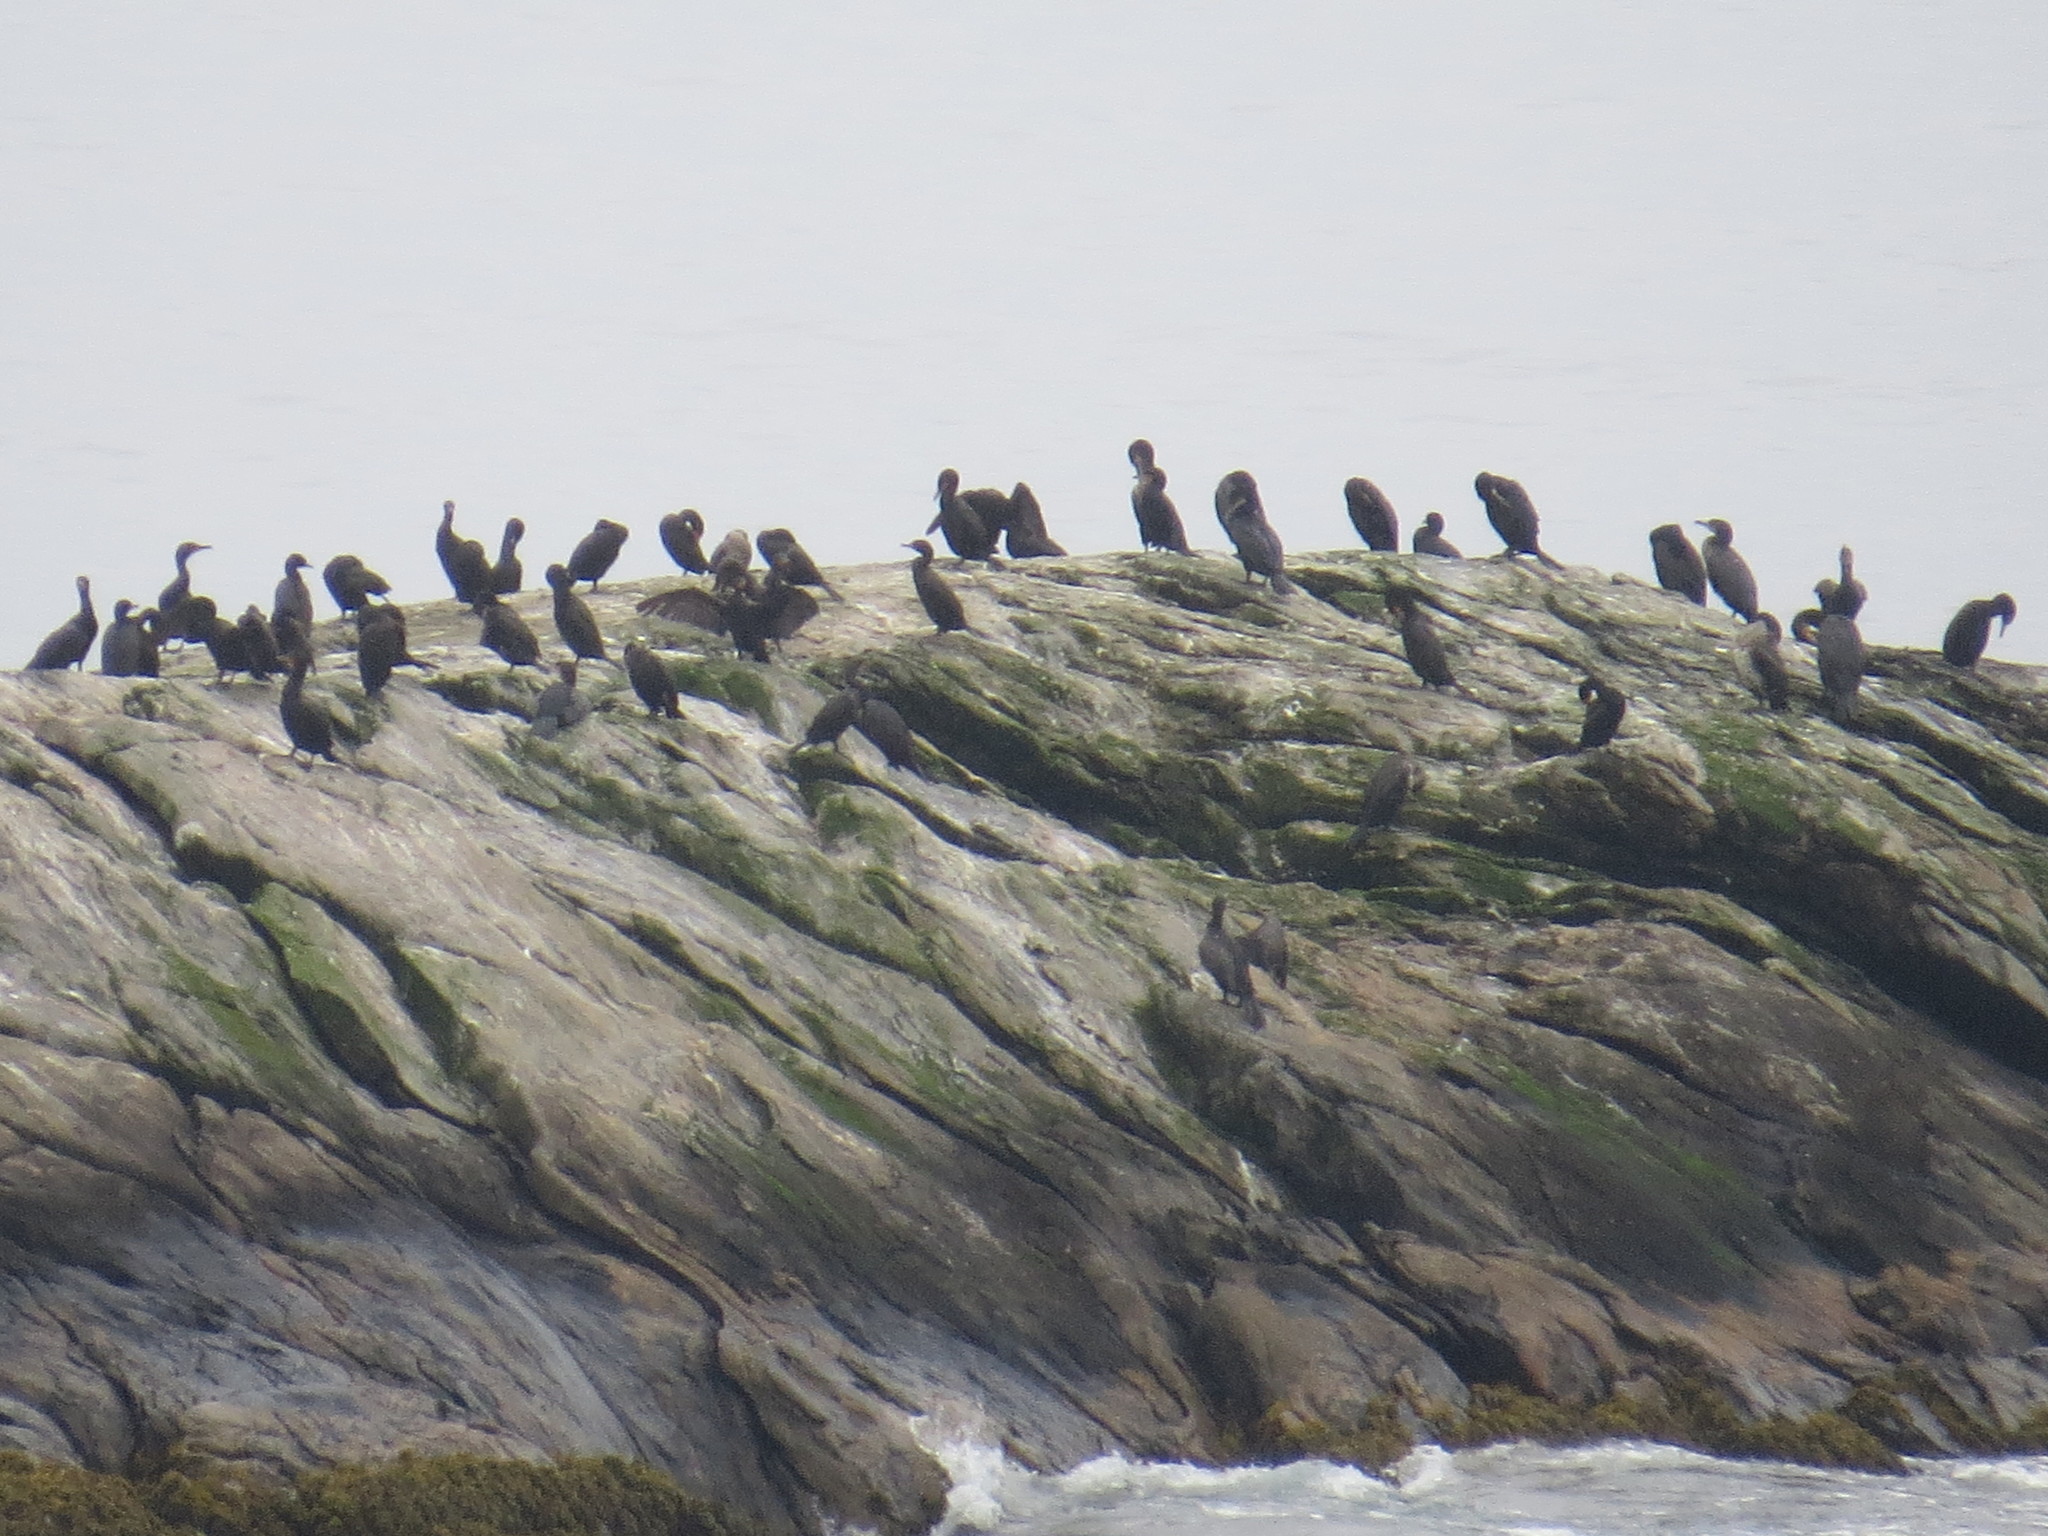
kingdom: Animalia
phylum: Chordata
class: Aves
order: Suliformes
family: Phalacrocoracidae
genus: Phalacrocorax
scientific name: Phalacrocorax auritus
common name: Double-crested cormorant
